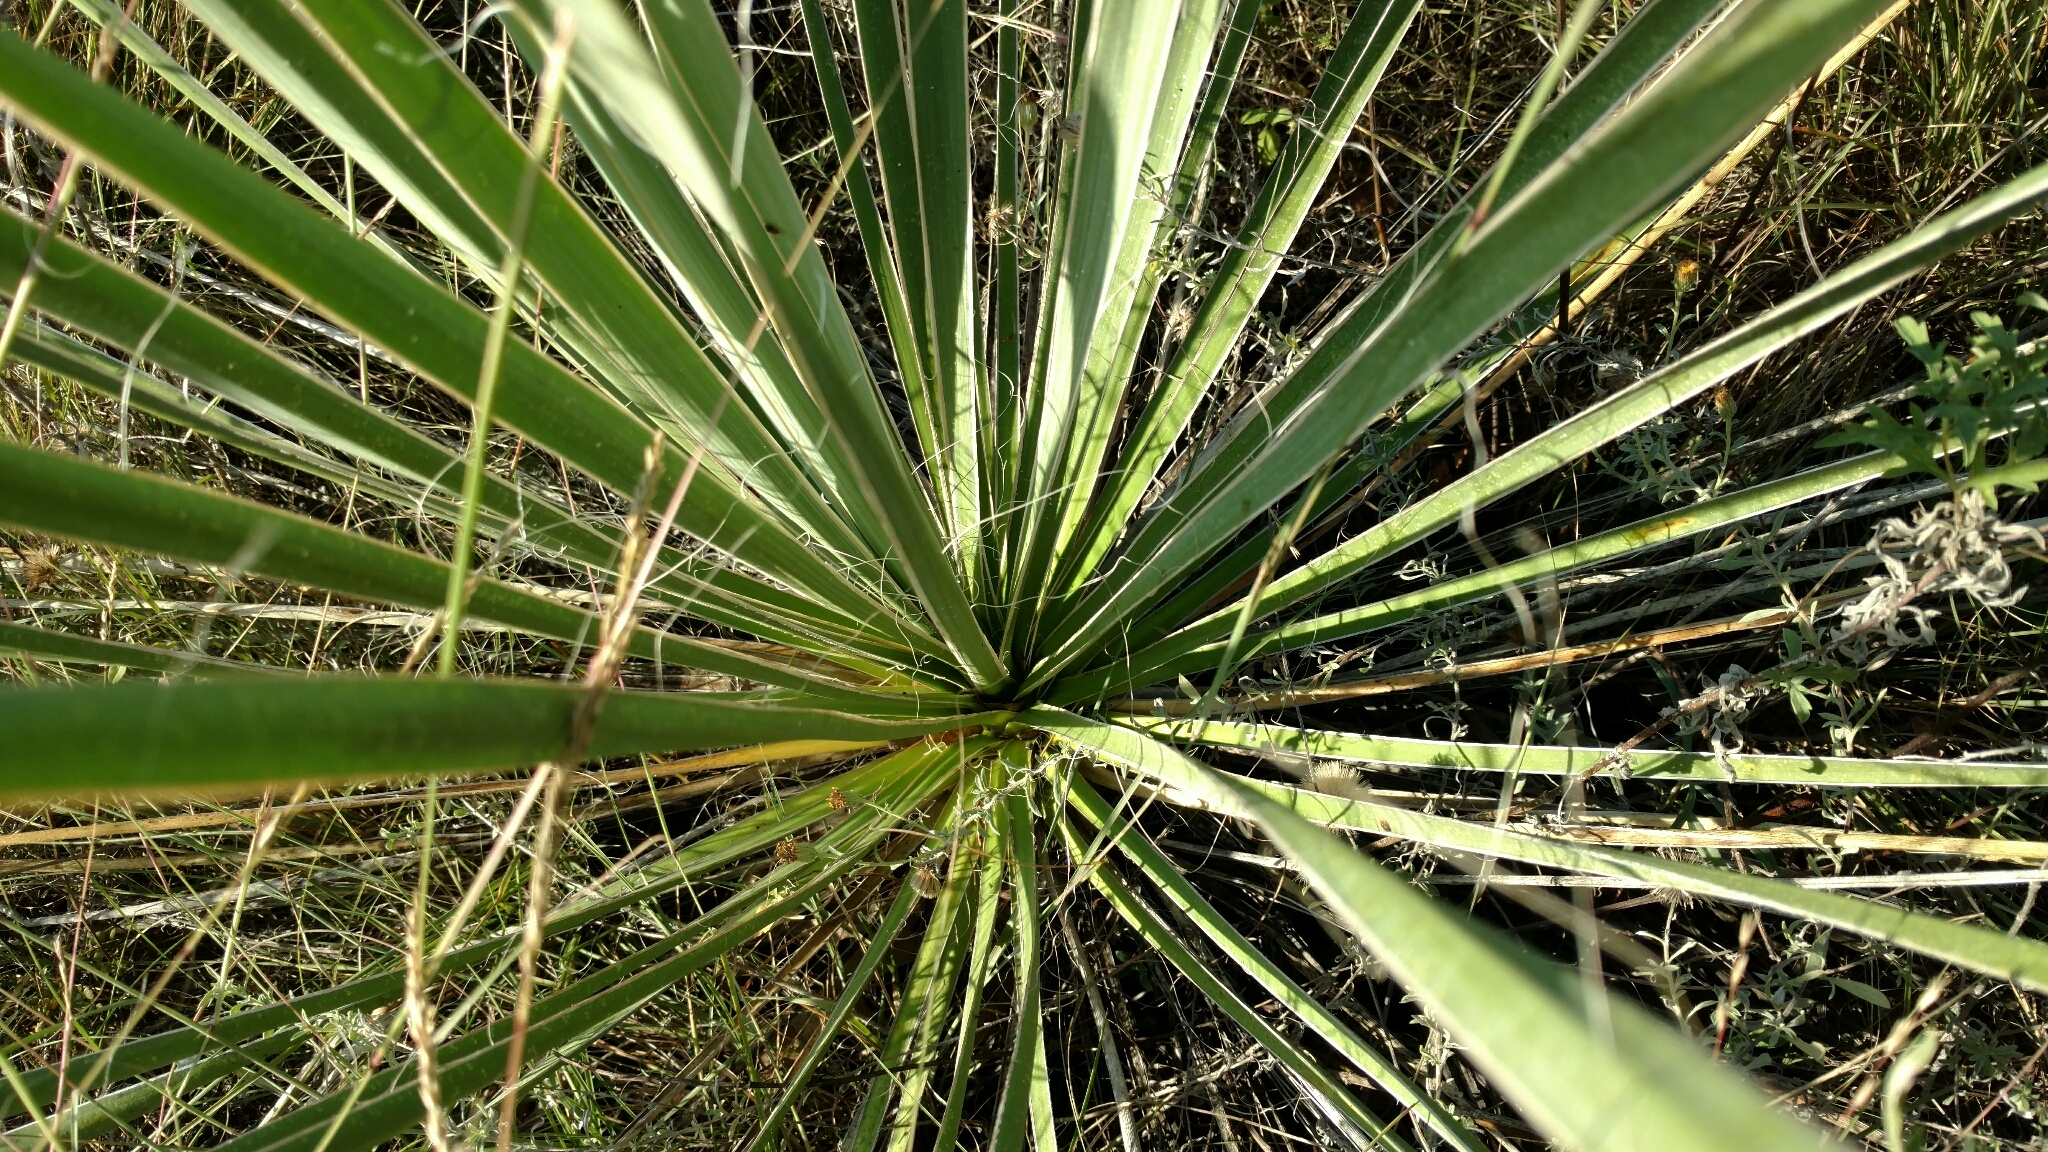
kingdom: Plantae
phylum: Tracheophyta
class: Liliopsida
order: Asparagales
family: Asparagaceae
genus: Yucca
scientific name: Yucca necopina
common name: Glen rose yucca
